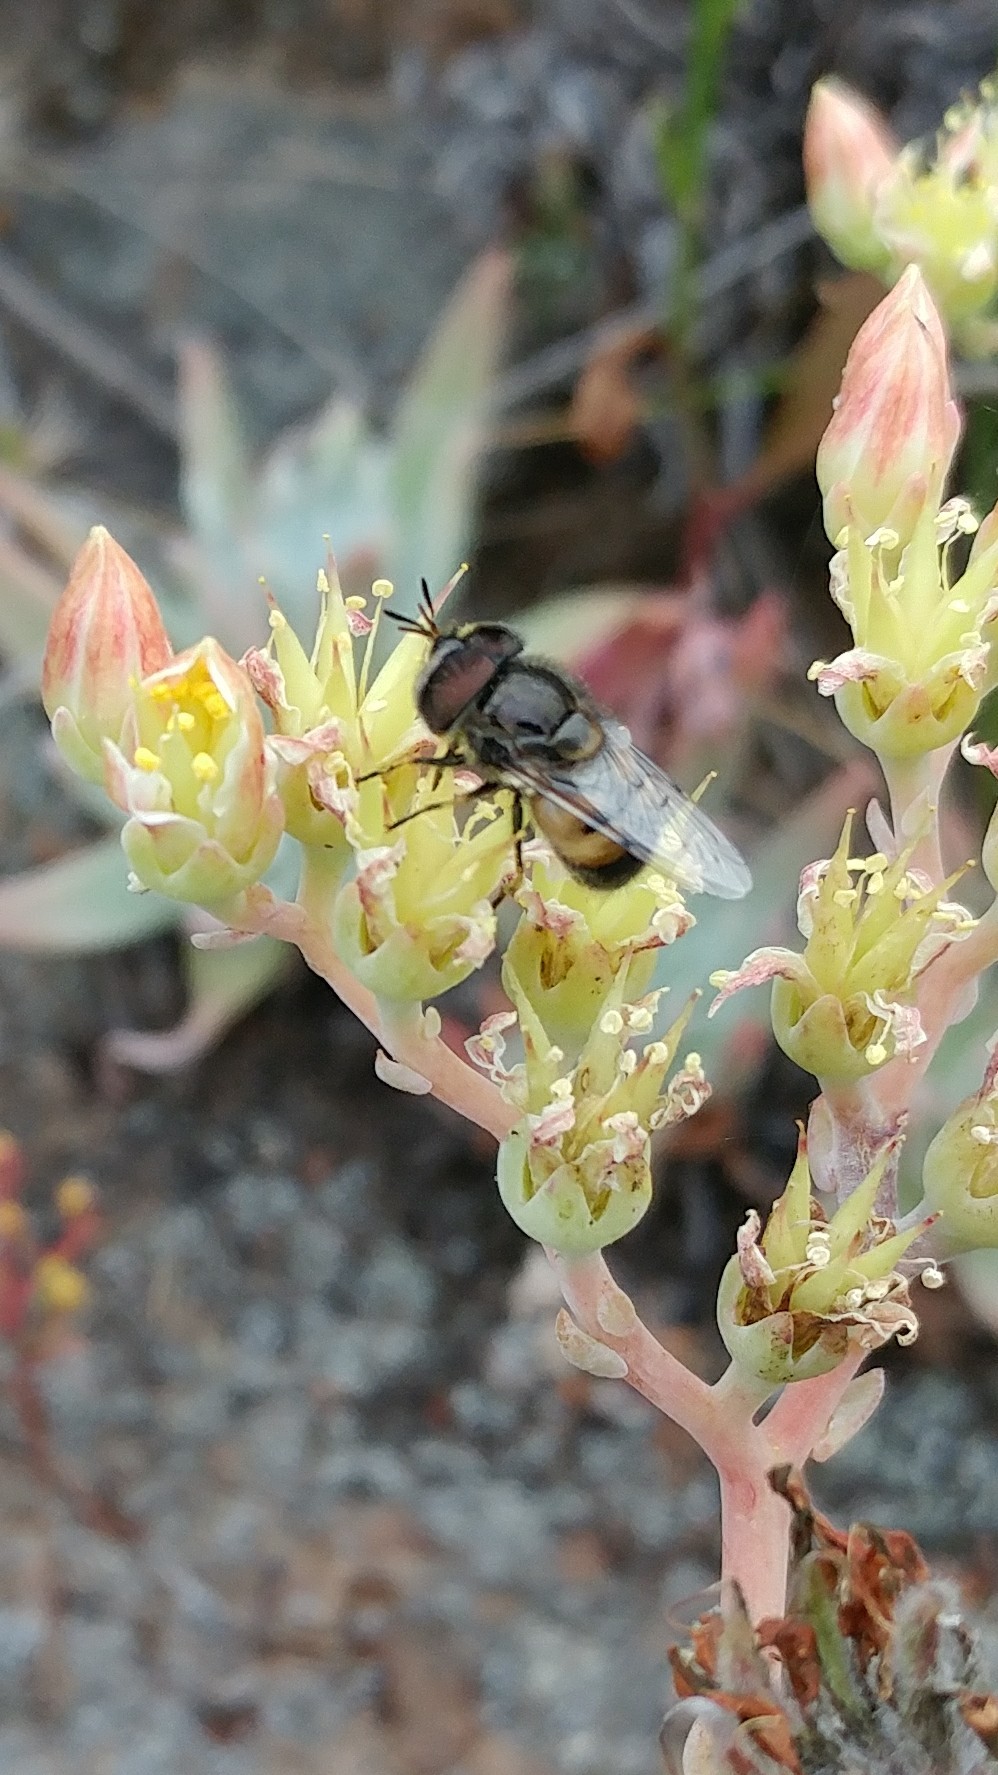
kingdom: Animalia
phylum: Arthropoda
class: Insecta
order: Diptera
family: Syrphidae
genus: Copestylum
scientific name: Copestylum lentum
